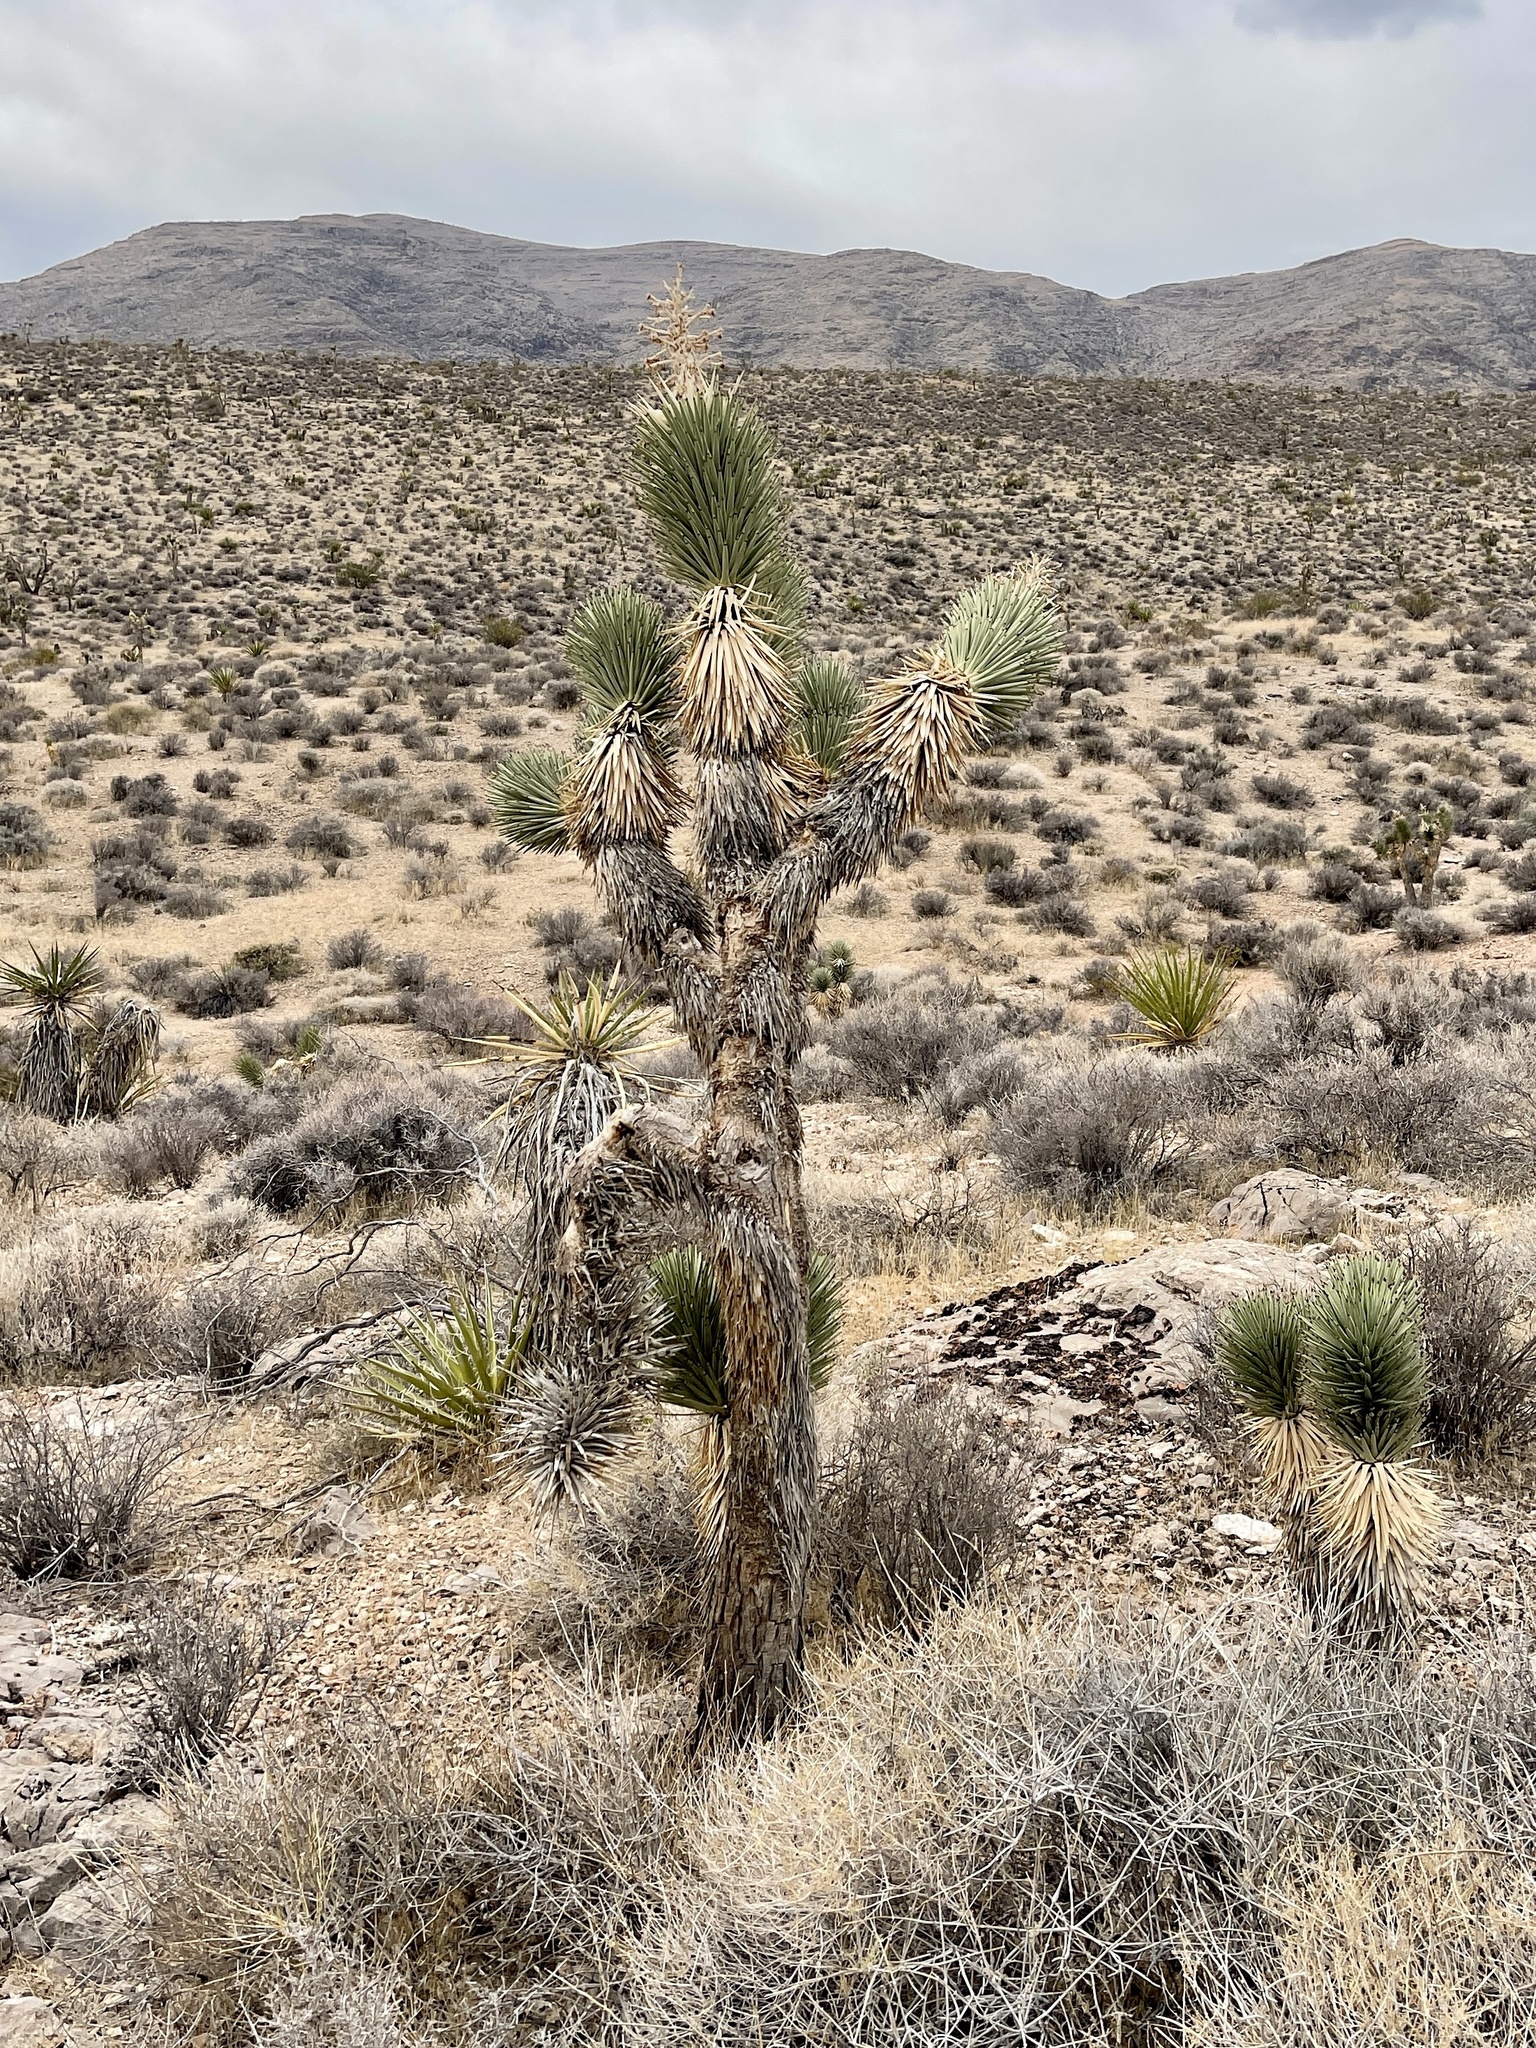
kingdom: Plantae
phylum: Tracheophyta
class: Liliopsida
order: Asparagales
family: Asparagaceae
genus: Yucca
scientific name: Yucca brevifolia
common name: Joshua tree
